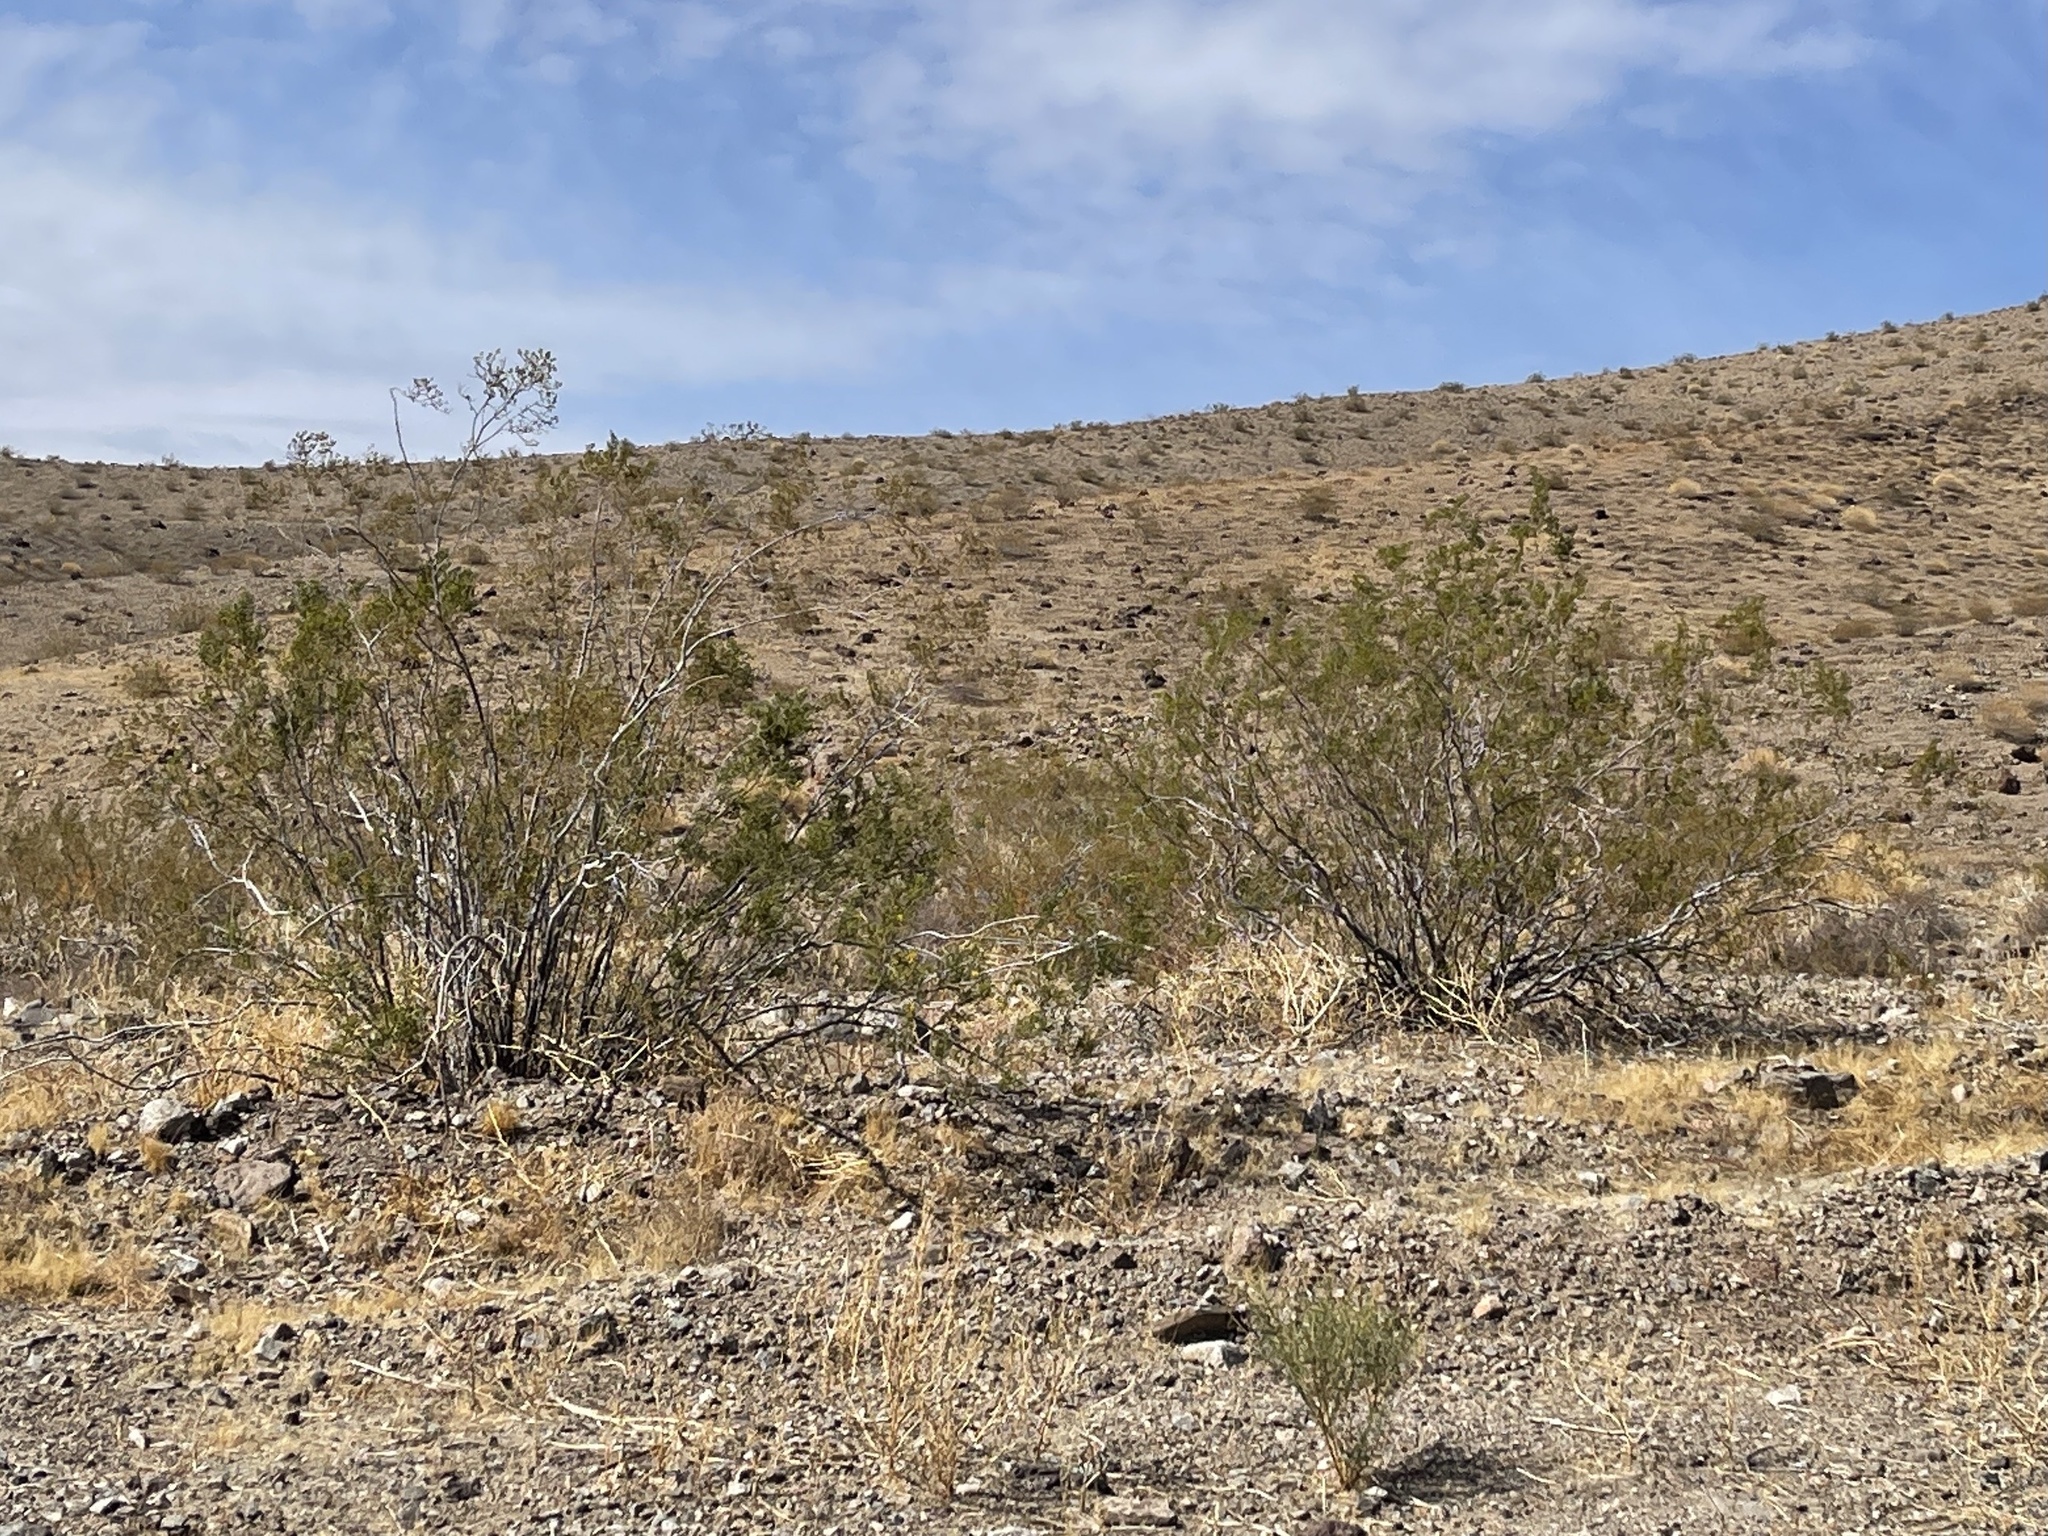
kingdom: Plantae
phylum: Tracheophyta
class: Magnoliopsida
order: Zygophyllales
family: Zygophyllaceae
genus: Larrea
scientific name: Larrea tridentata
